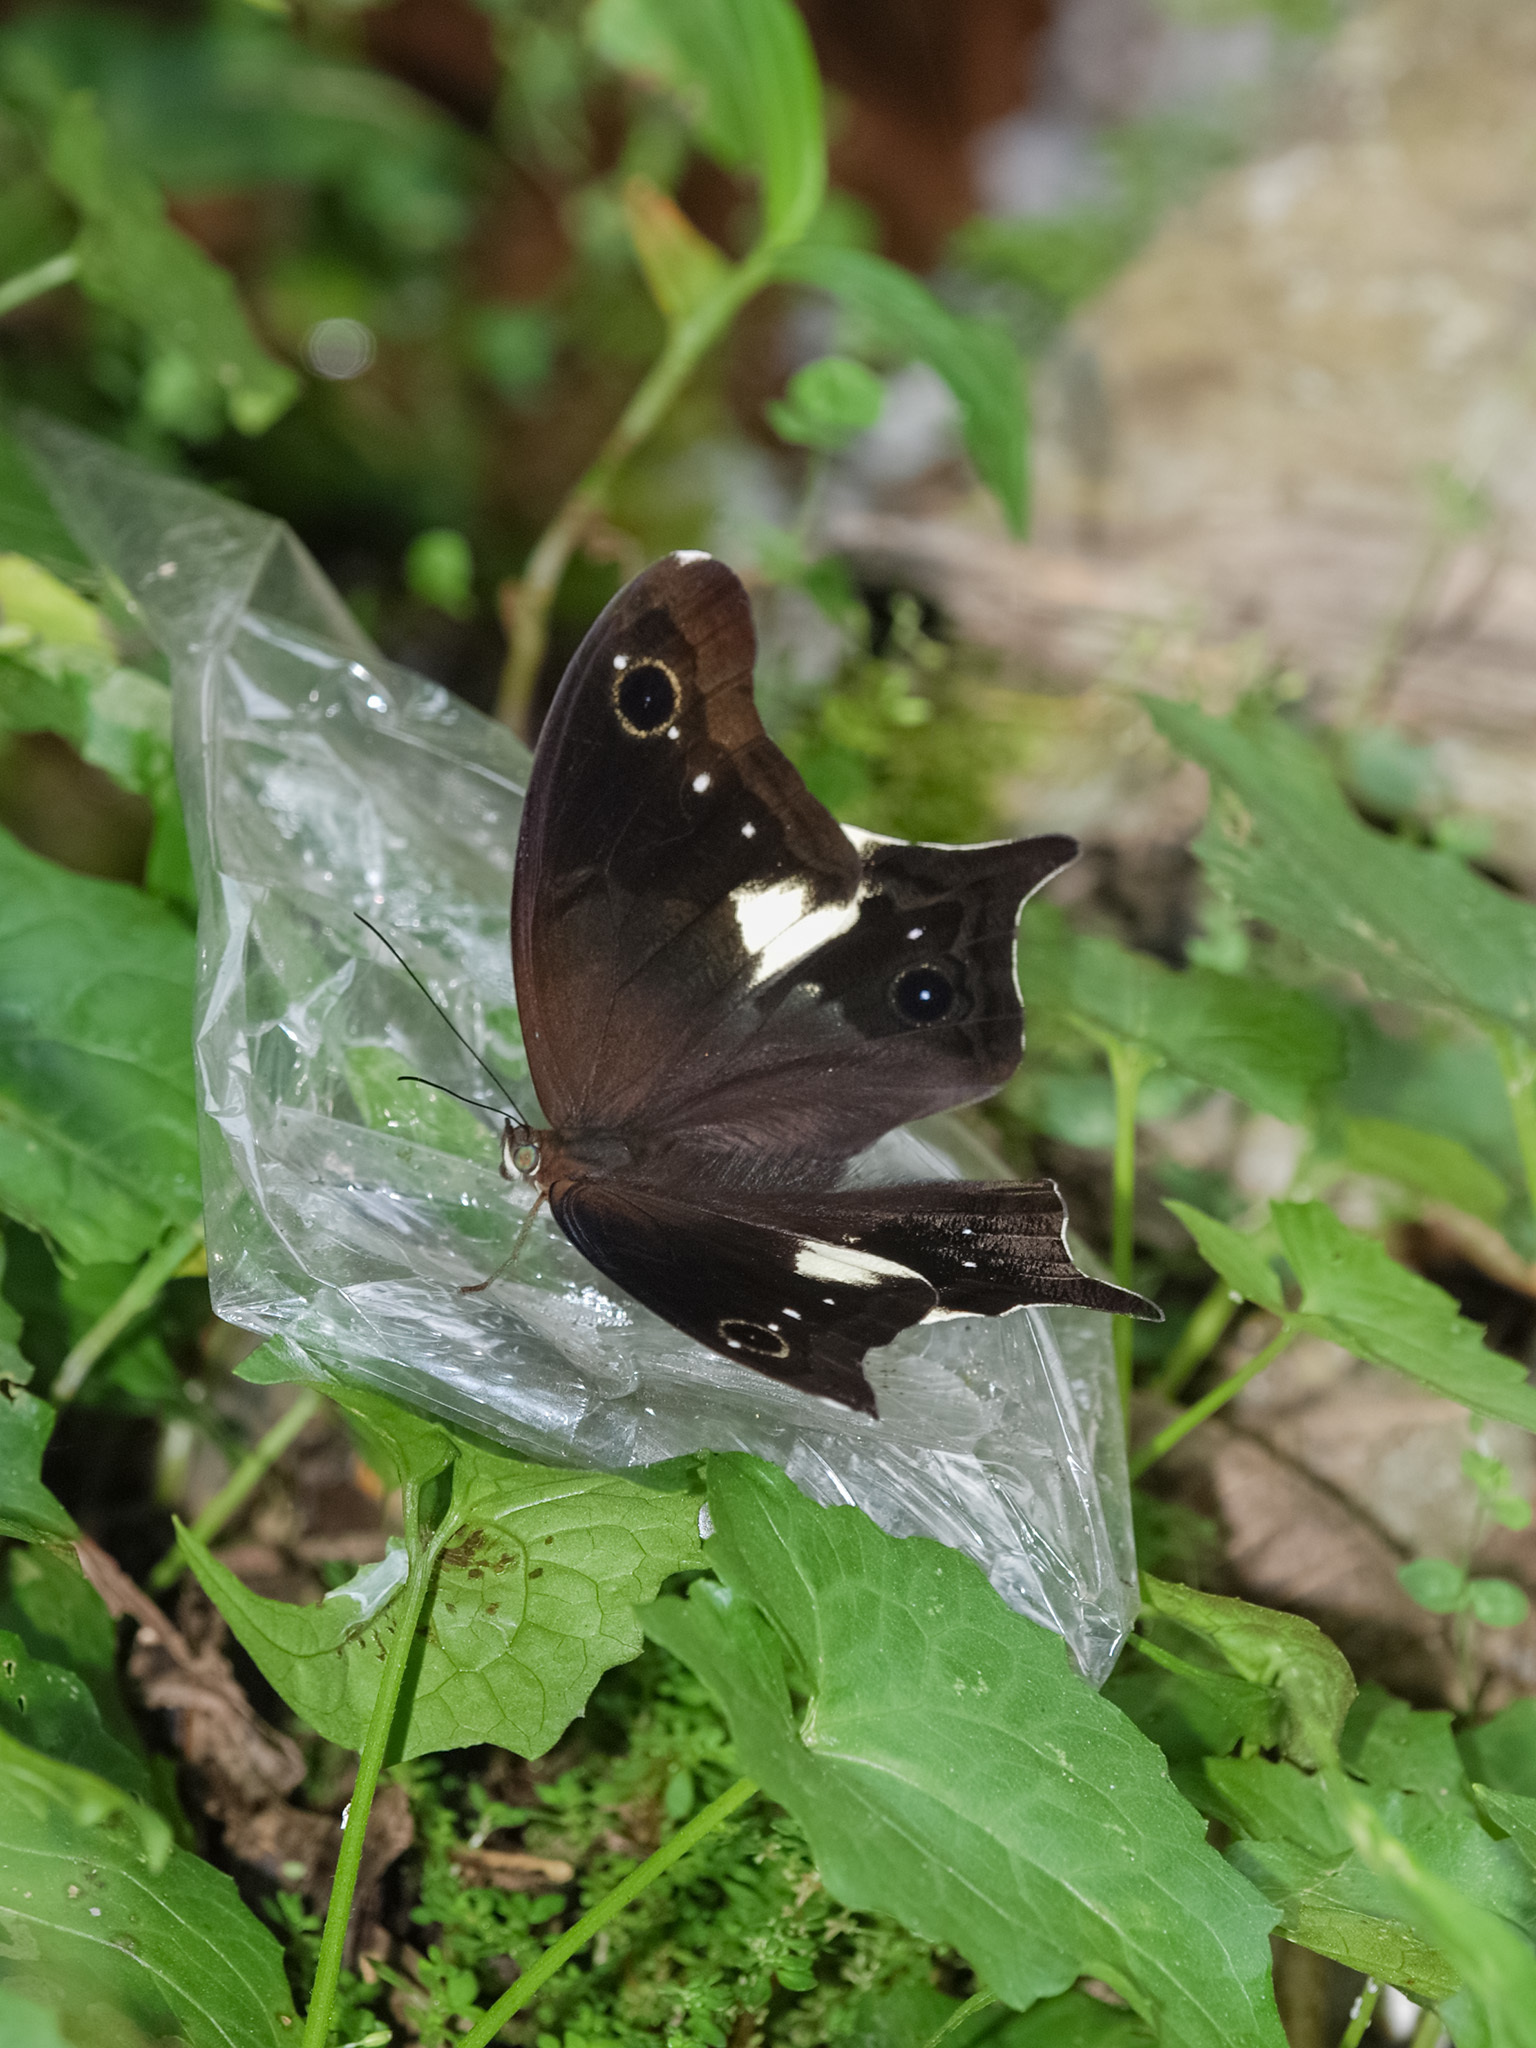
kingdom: Animalia
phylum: Arthropoda
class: Insecta
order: Lepidoptera
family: Nymphalidae
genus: Neorina
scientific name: Neorina lowii
